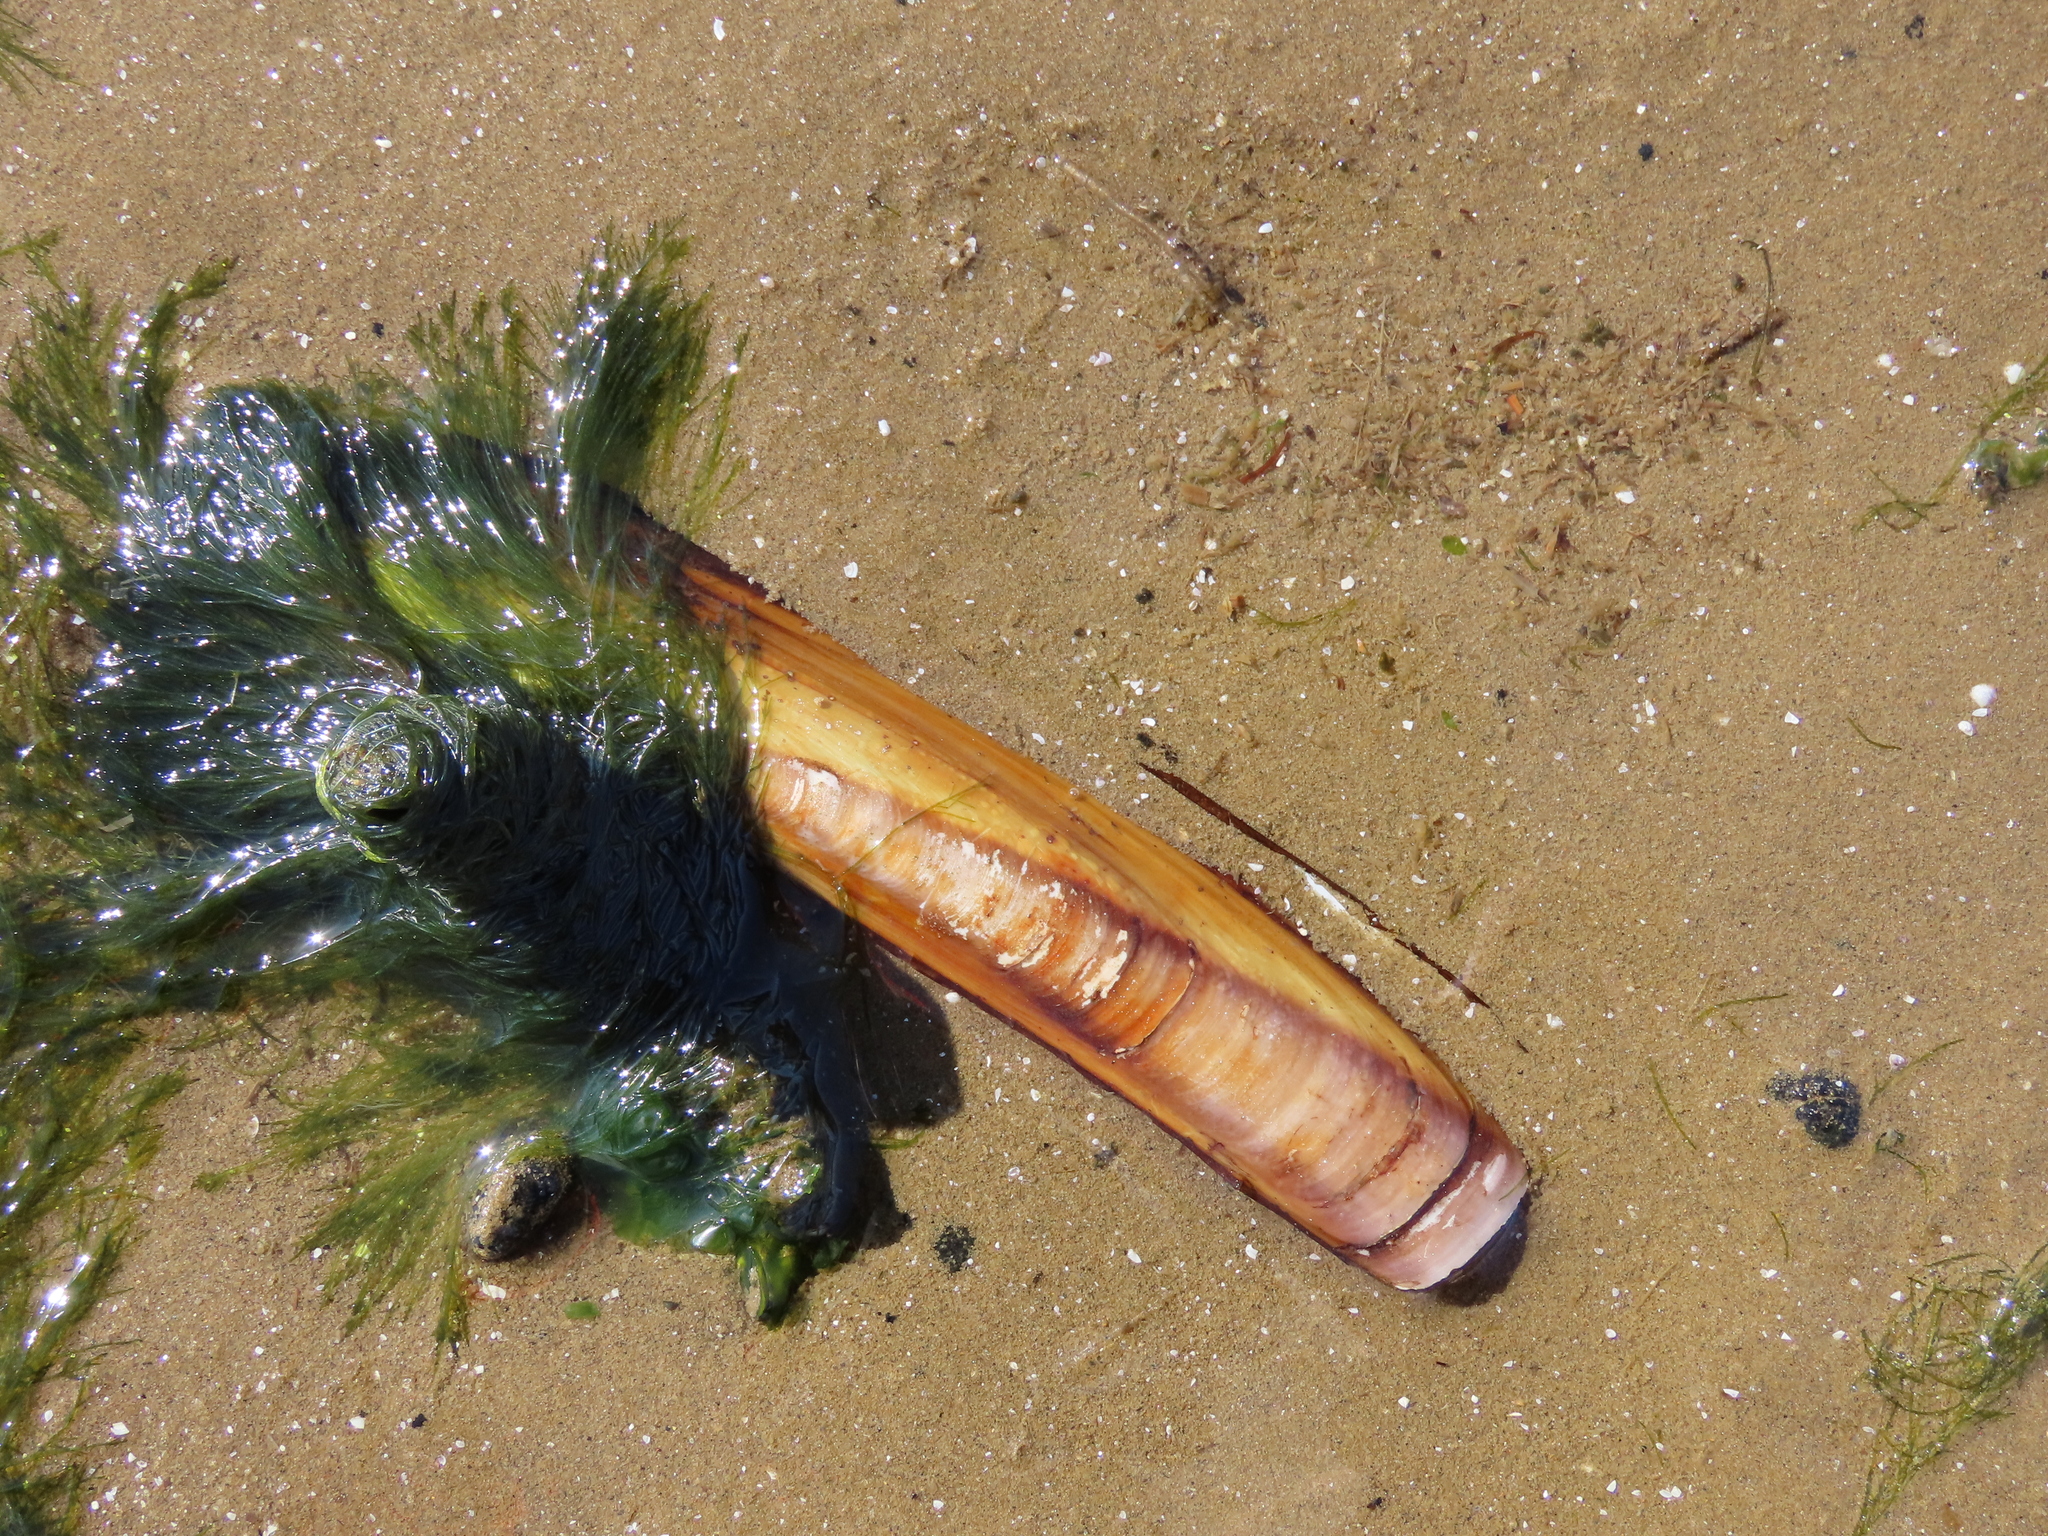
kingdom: Animalia
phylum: Mollusca
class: Bivalvia
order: Adapedonta
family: Pharidae
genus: Ensis
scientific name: Ensis leei
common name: American jack knife clam
